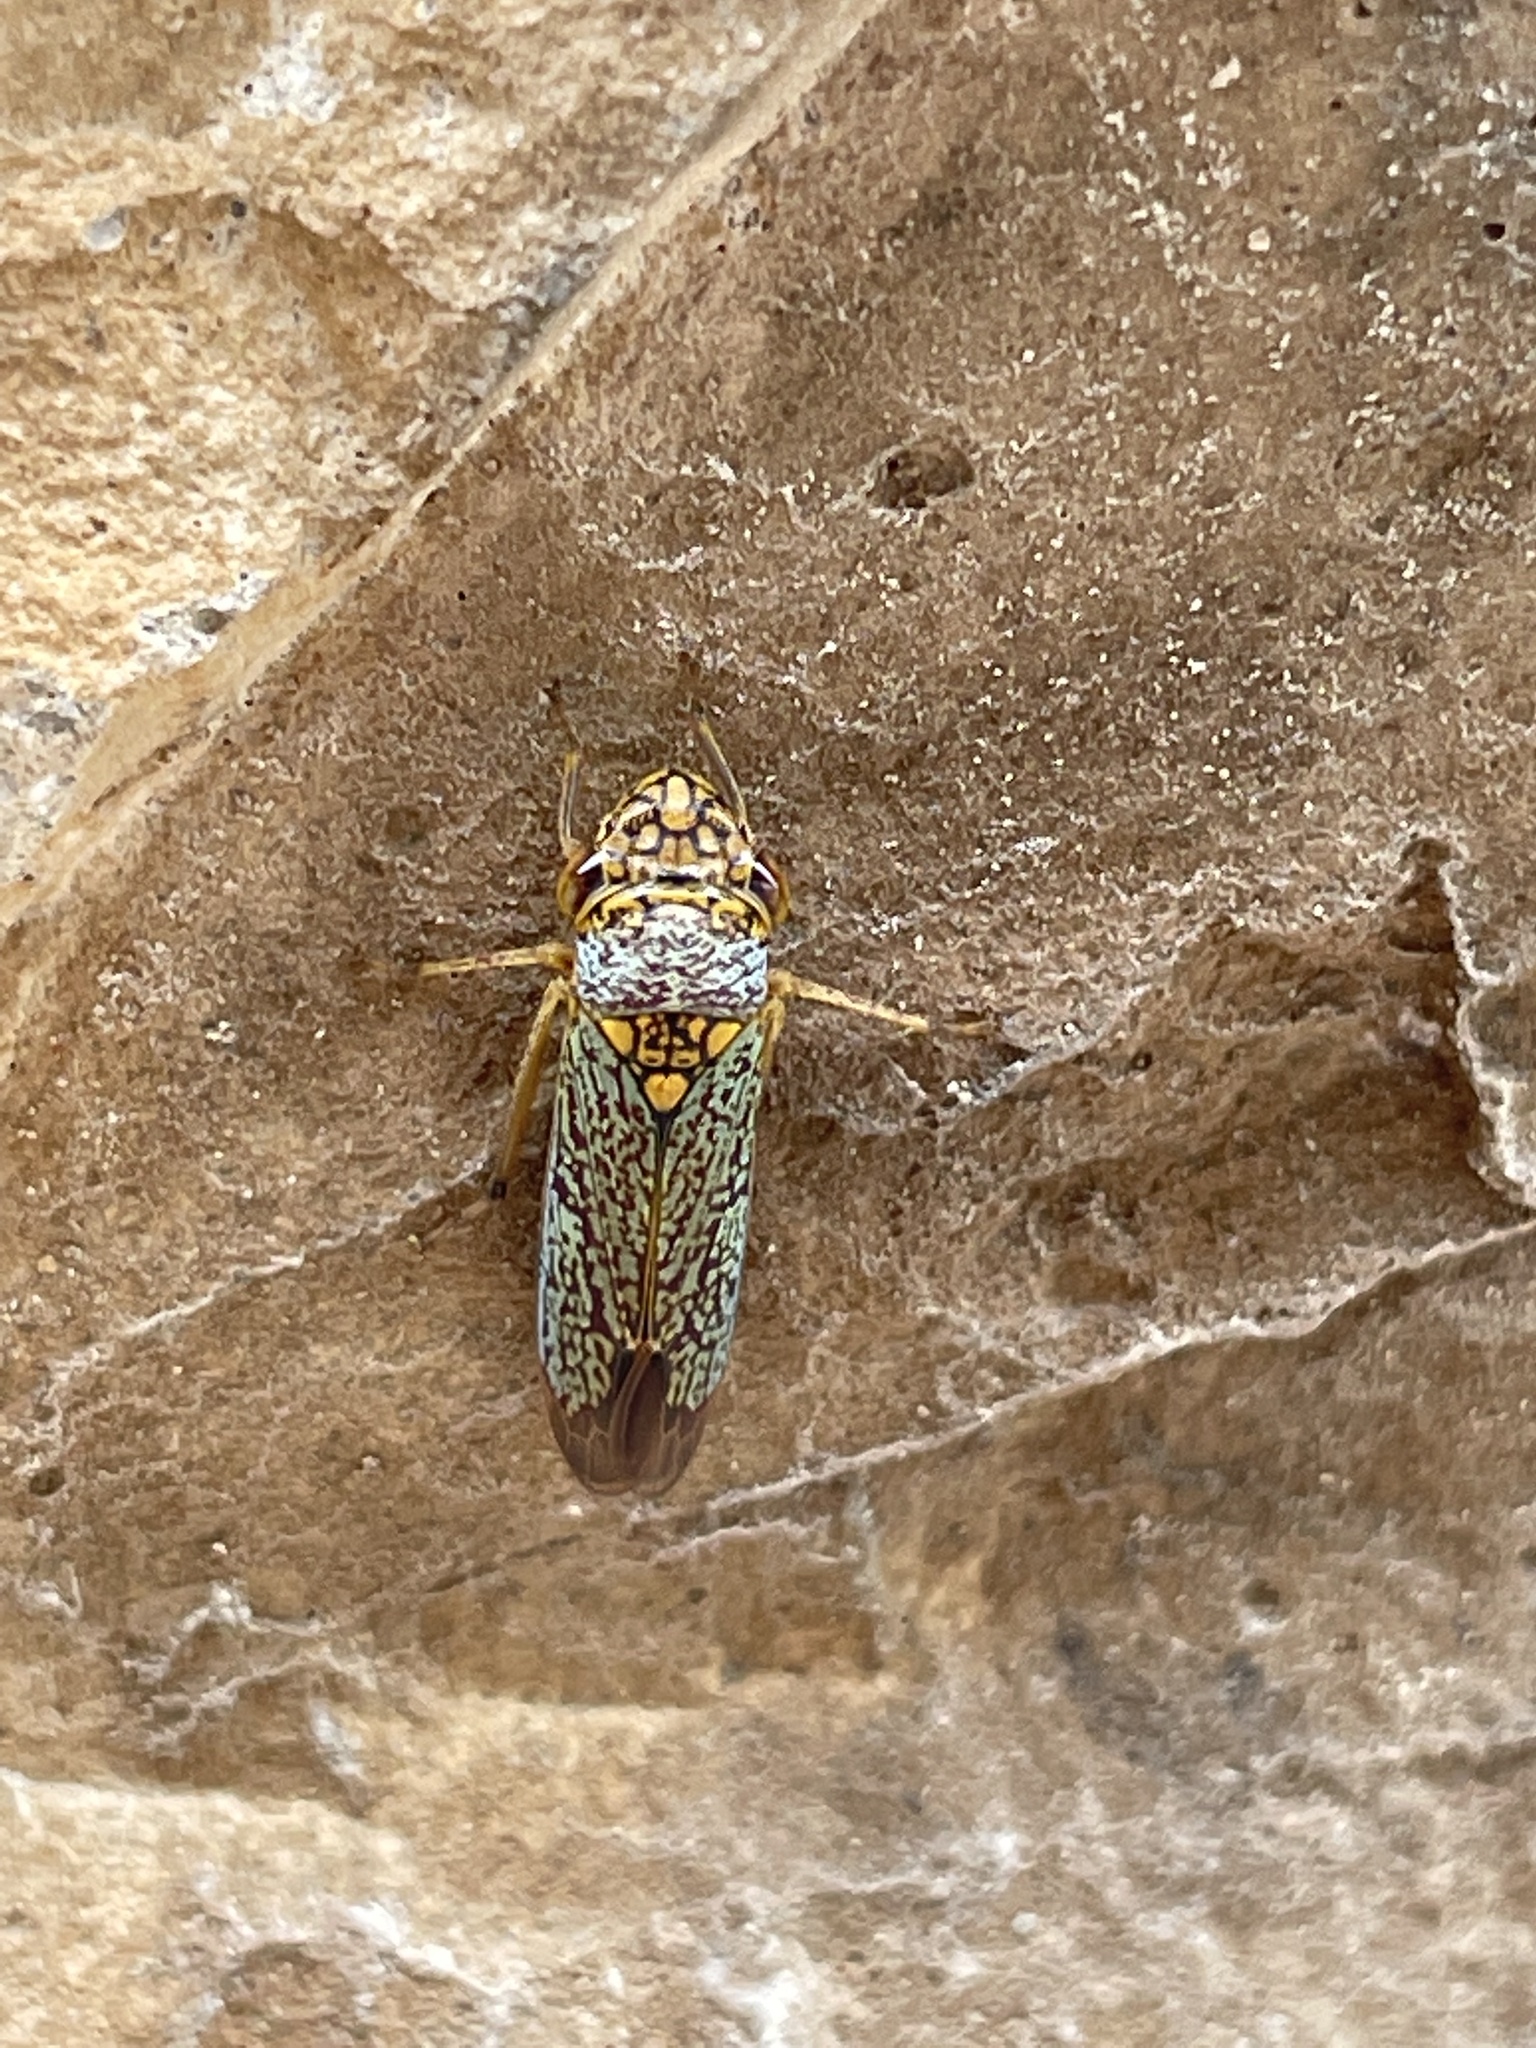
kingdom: Animalia
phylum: Arthropoda
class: Insecta
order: Hemiptera
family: Cicadellidae
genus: Oncometopia
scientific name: Oncometopia orbona
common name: Broad-headed sharpshooter
